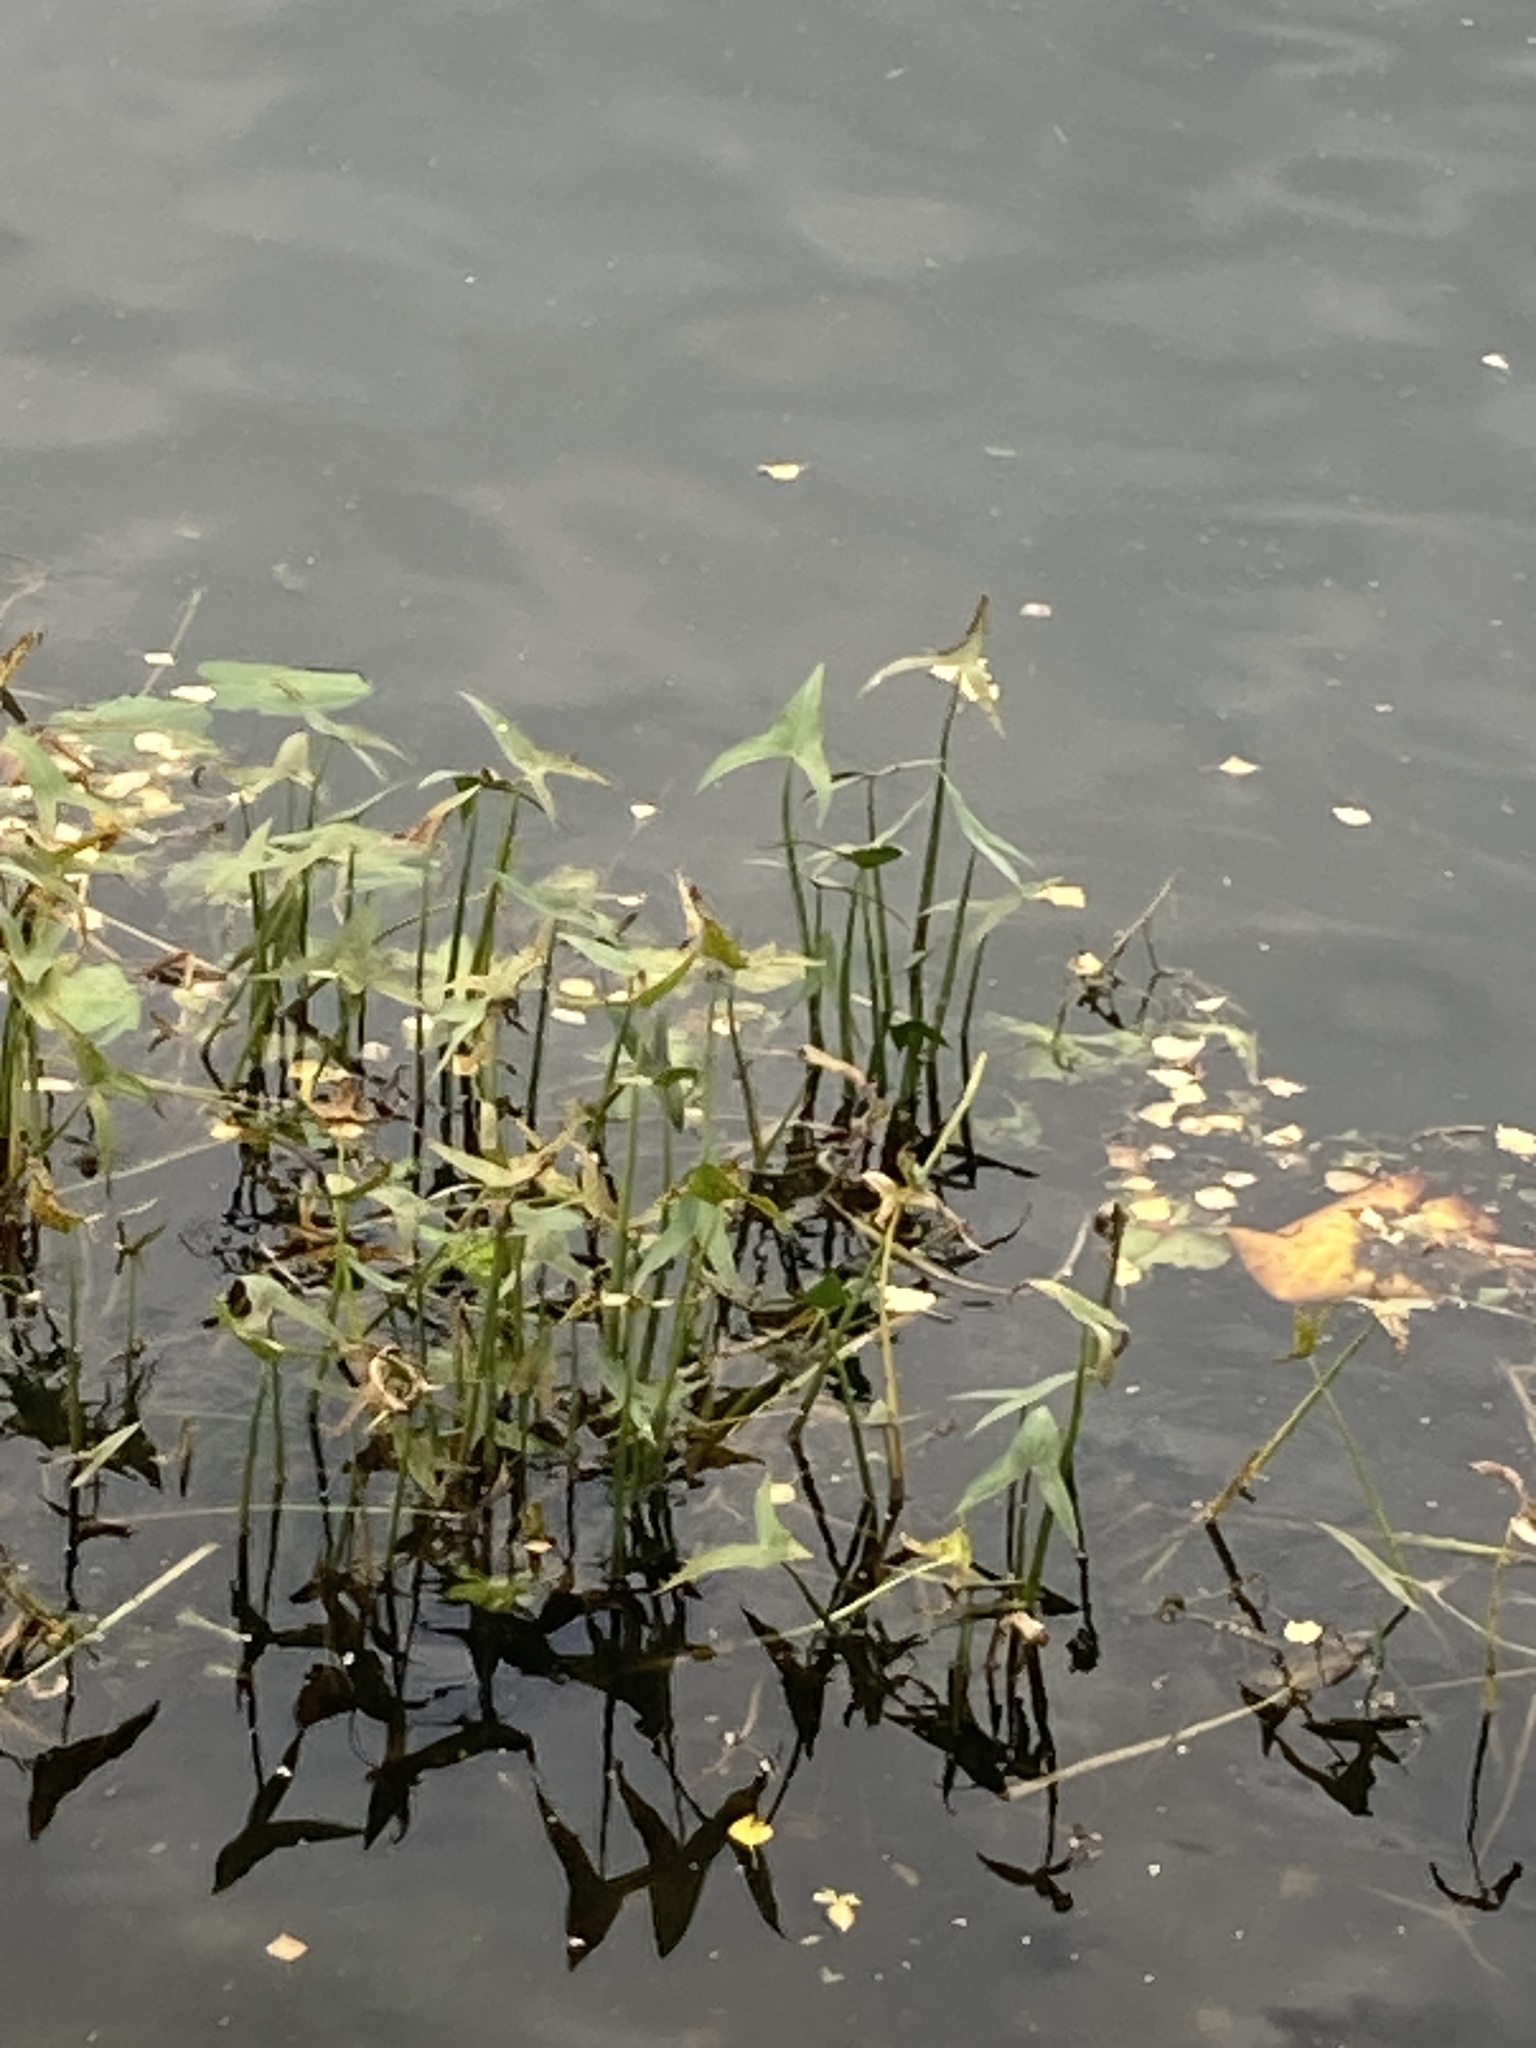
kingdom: Plantae
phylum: Tracheophyta
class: Liliopsida
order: Alismatales
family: Alismataceae
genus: Sagittaria
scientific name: Sagittaria sagittifolia
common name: Arrowhead
